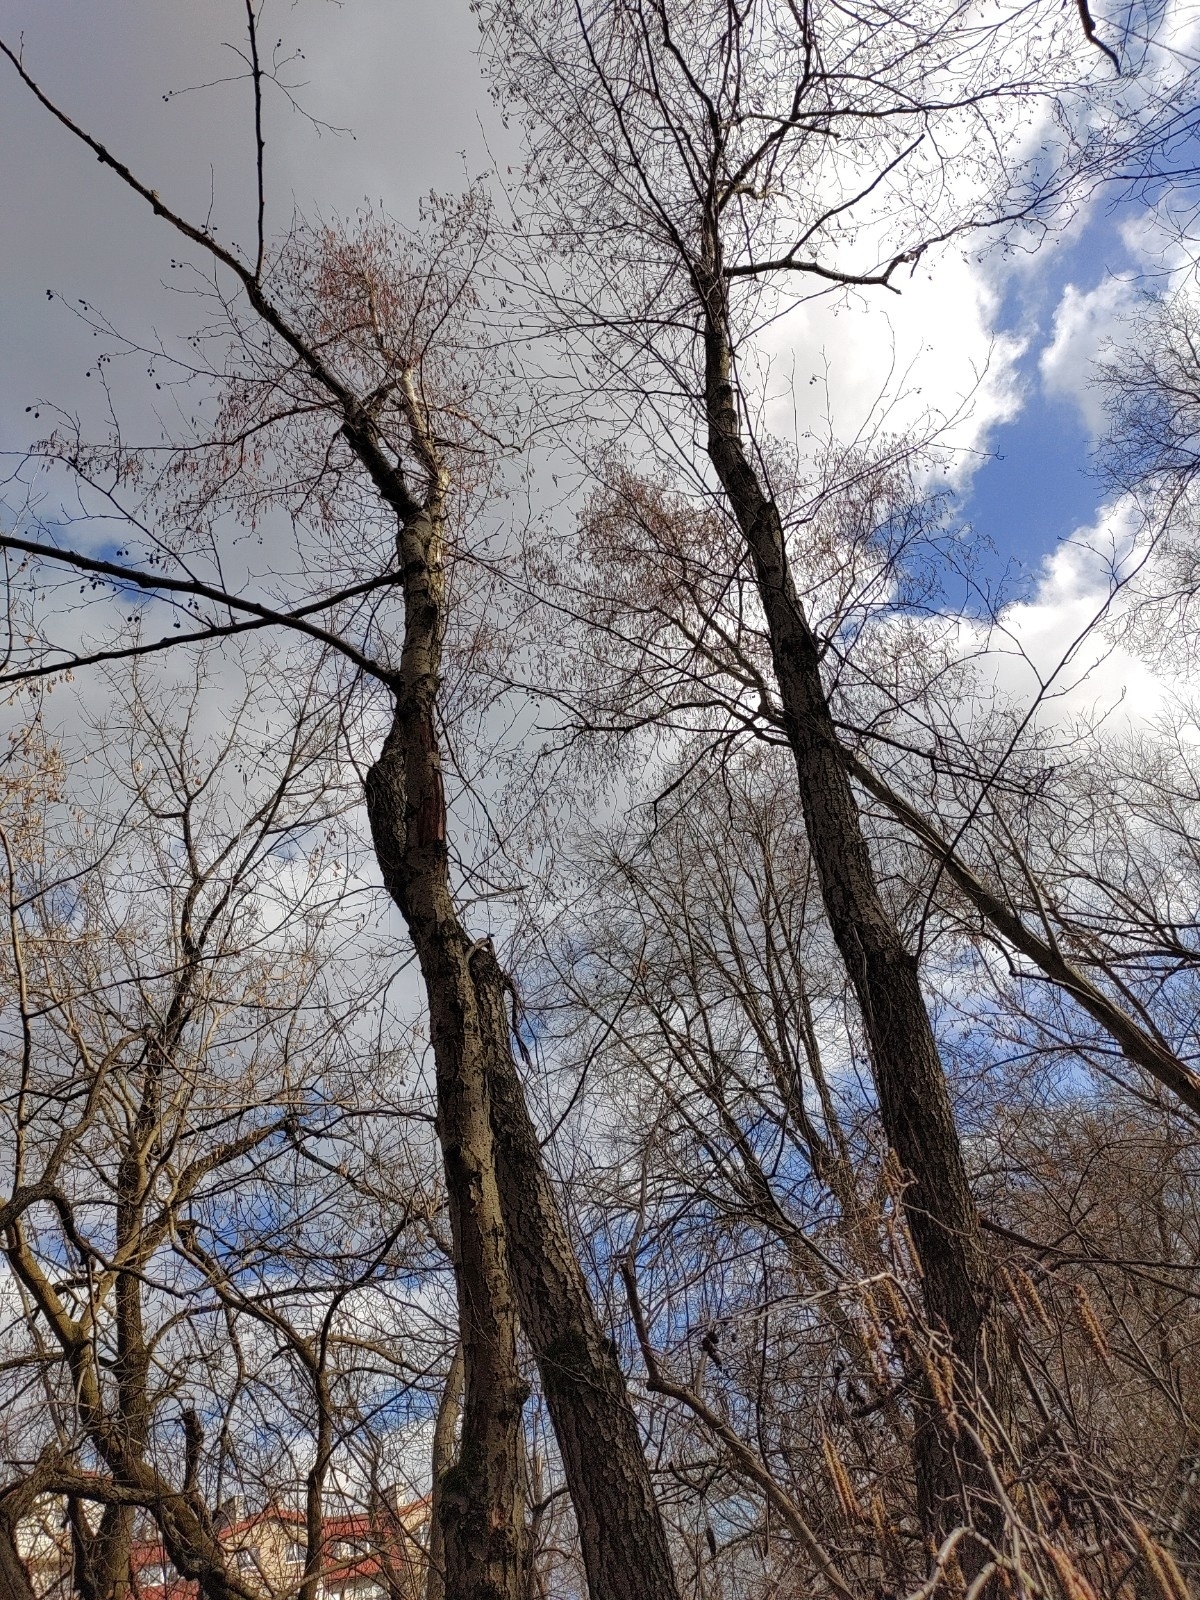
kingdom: Plantae
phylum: Tracheophyta
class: Magnoliopsida
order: Fagales
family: Betulaceae
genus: Alnus
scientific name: Alnus glutinosa
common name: Black alder
